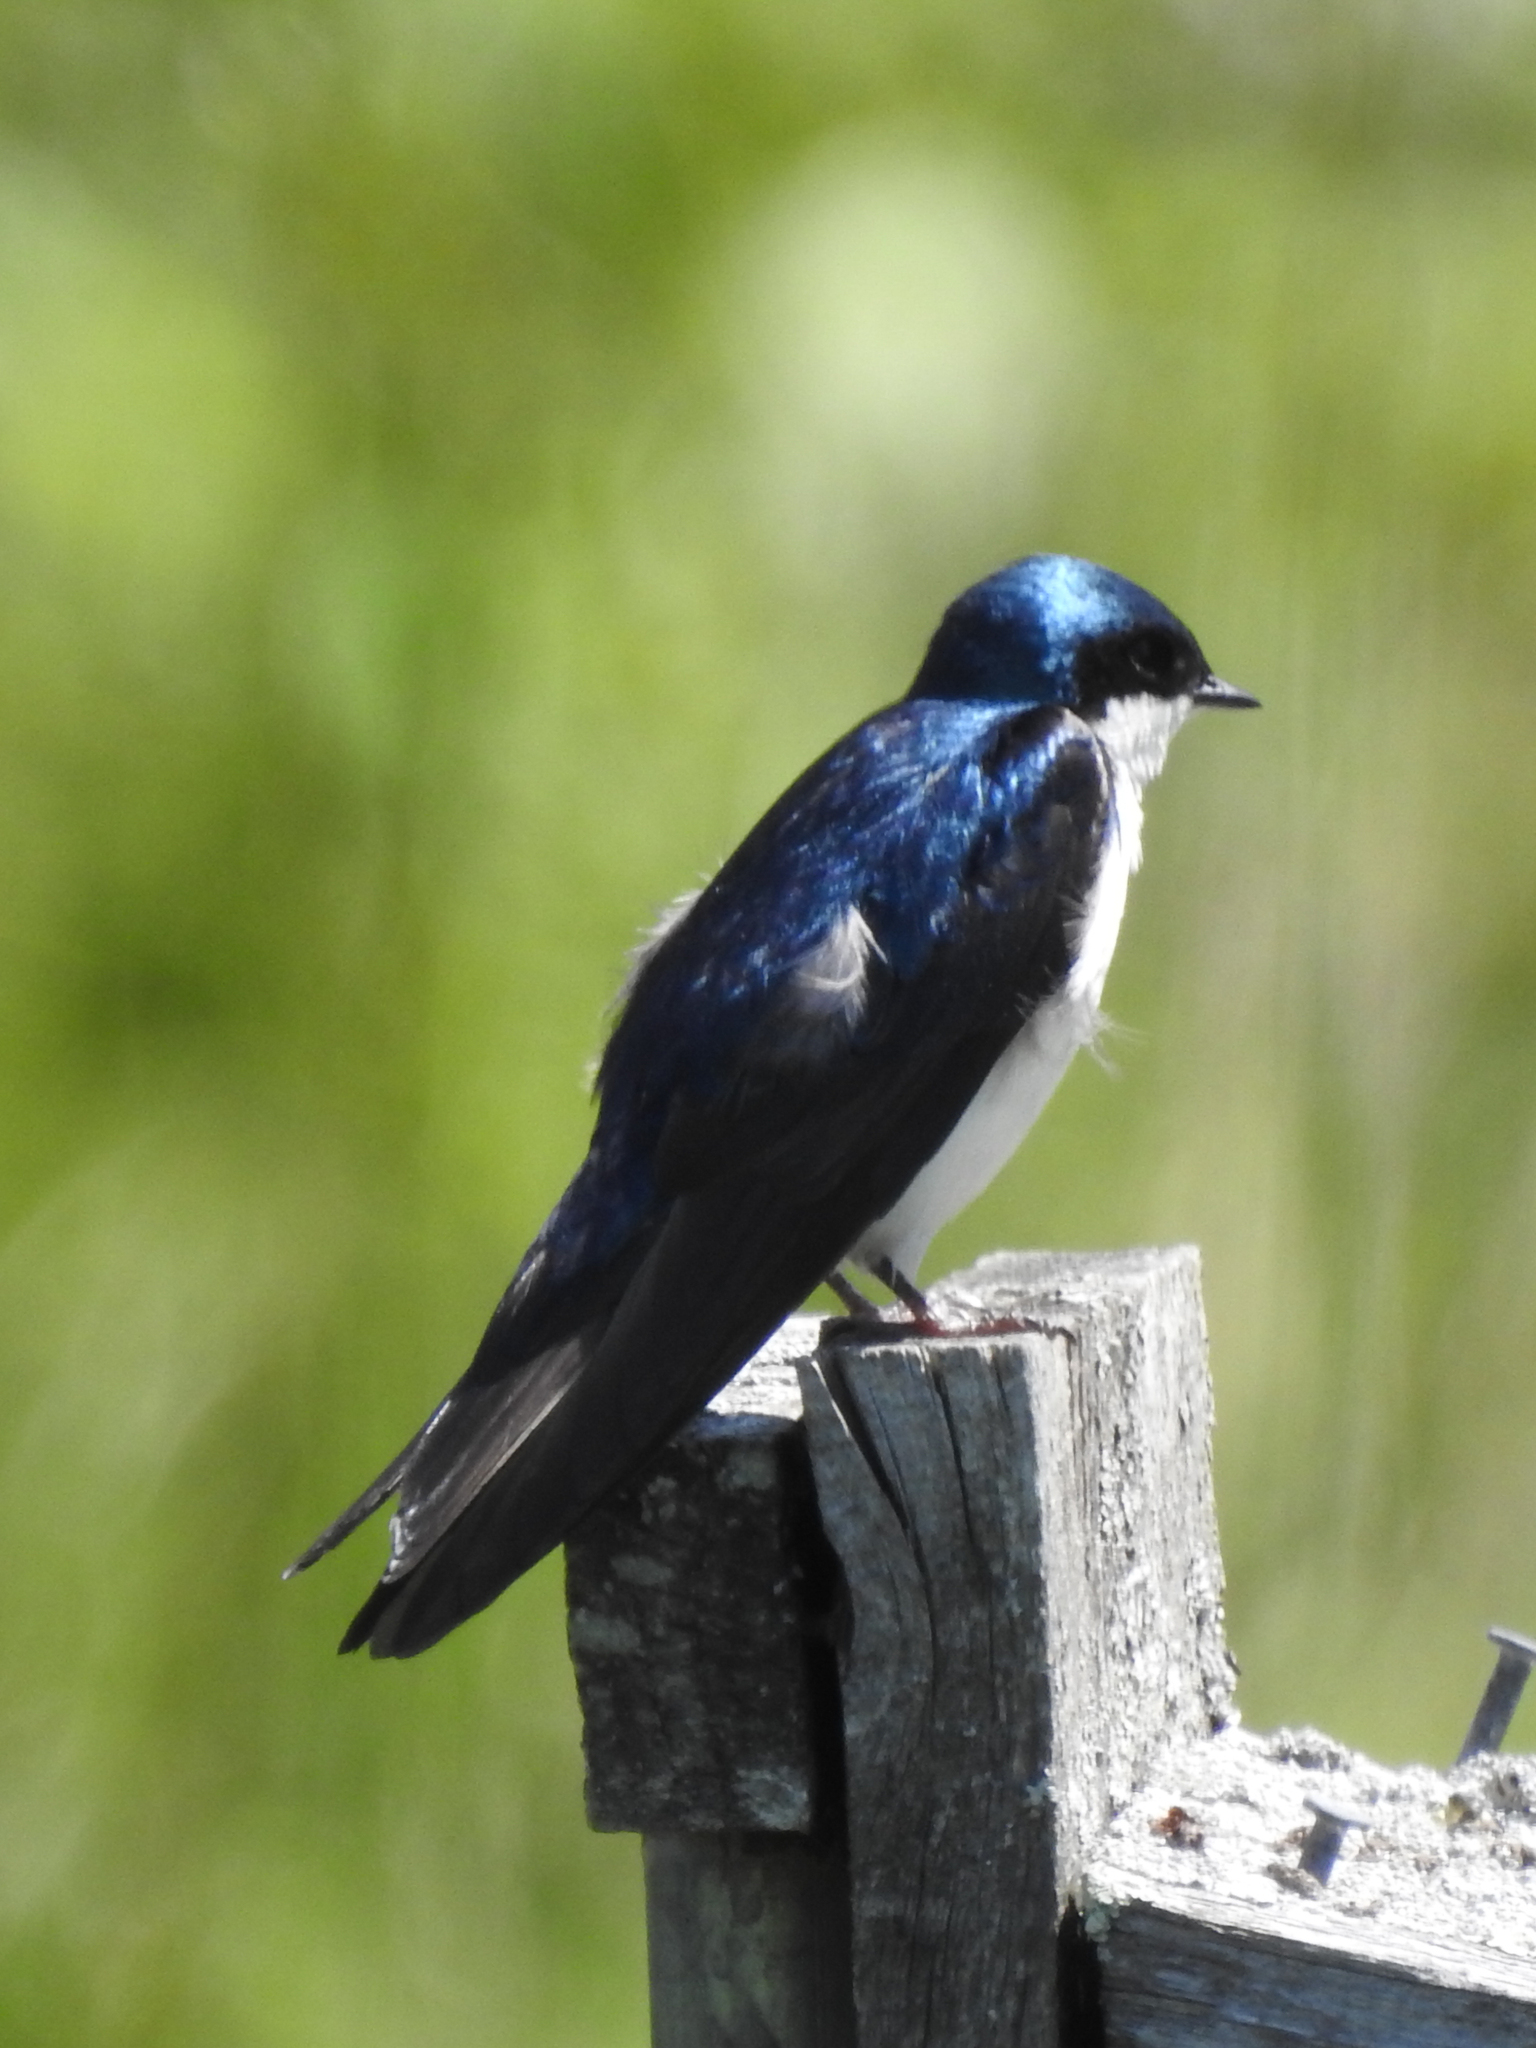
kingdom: Animalia
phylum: Chordata
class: Aves
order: Passeriformes
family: Hirundinidae
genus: Tachycineta
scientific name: Tachycineta bicolor
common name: Tree swallow
